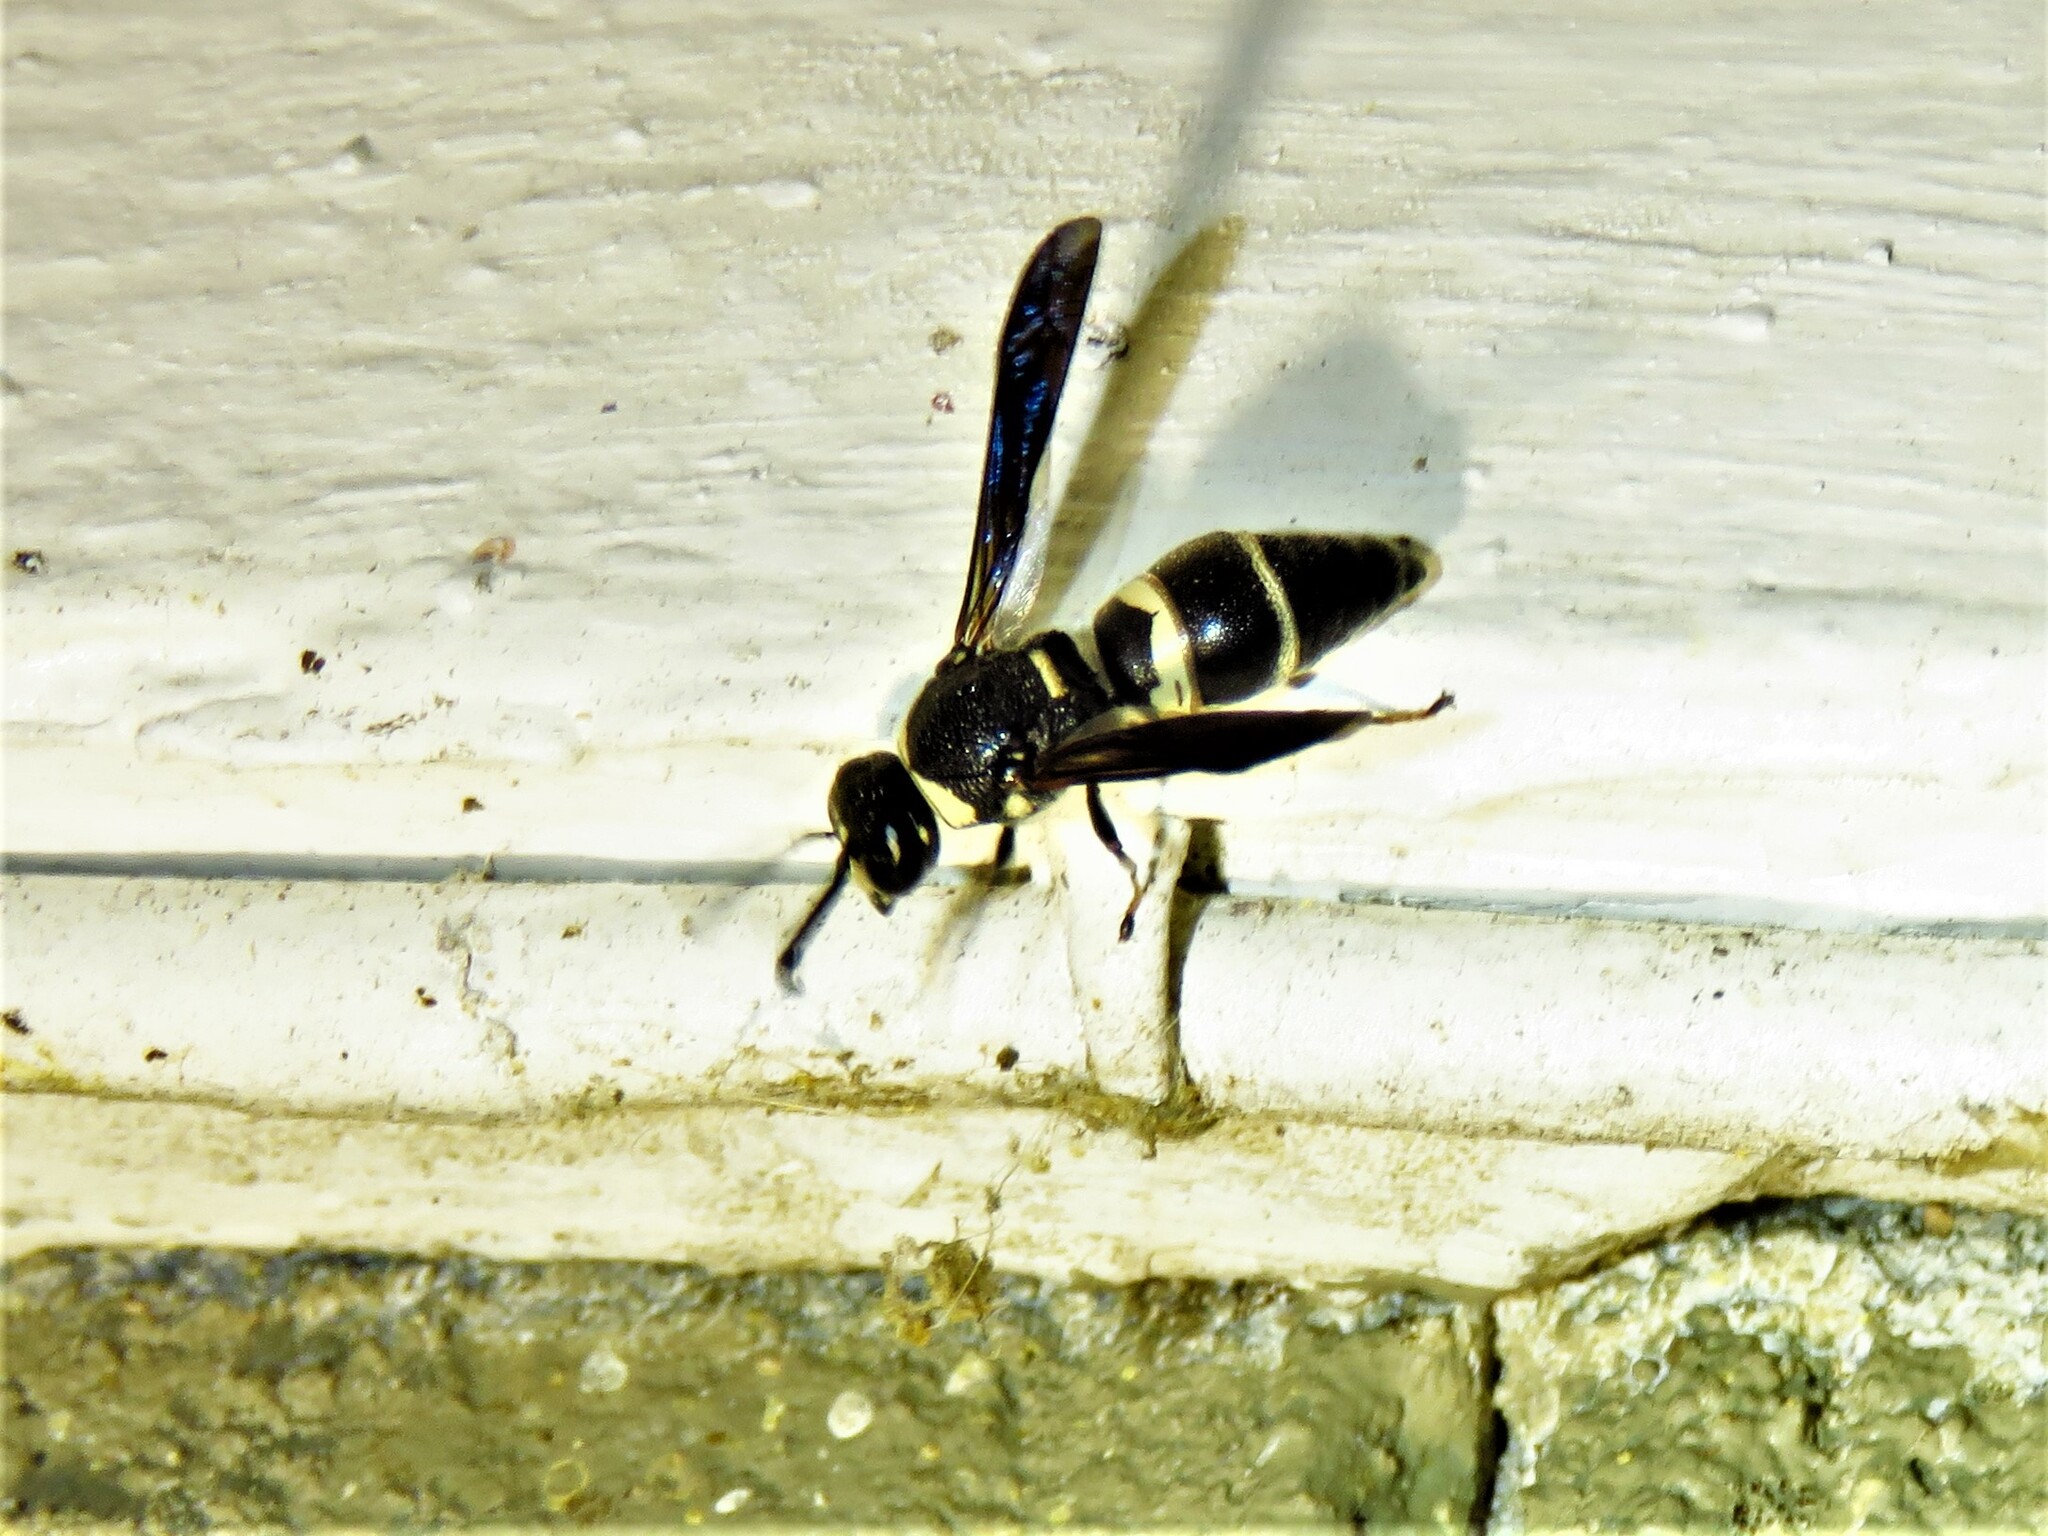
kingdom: Animalia
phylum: Arthropoda
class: Insecta
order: Hymenoptera
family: Eumenidae
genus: Euodynerus
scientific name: Euodynerus megaera
